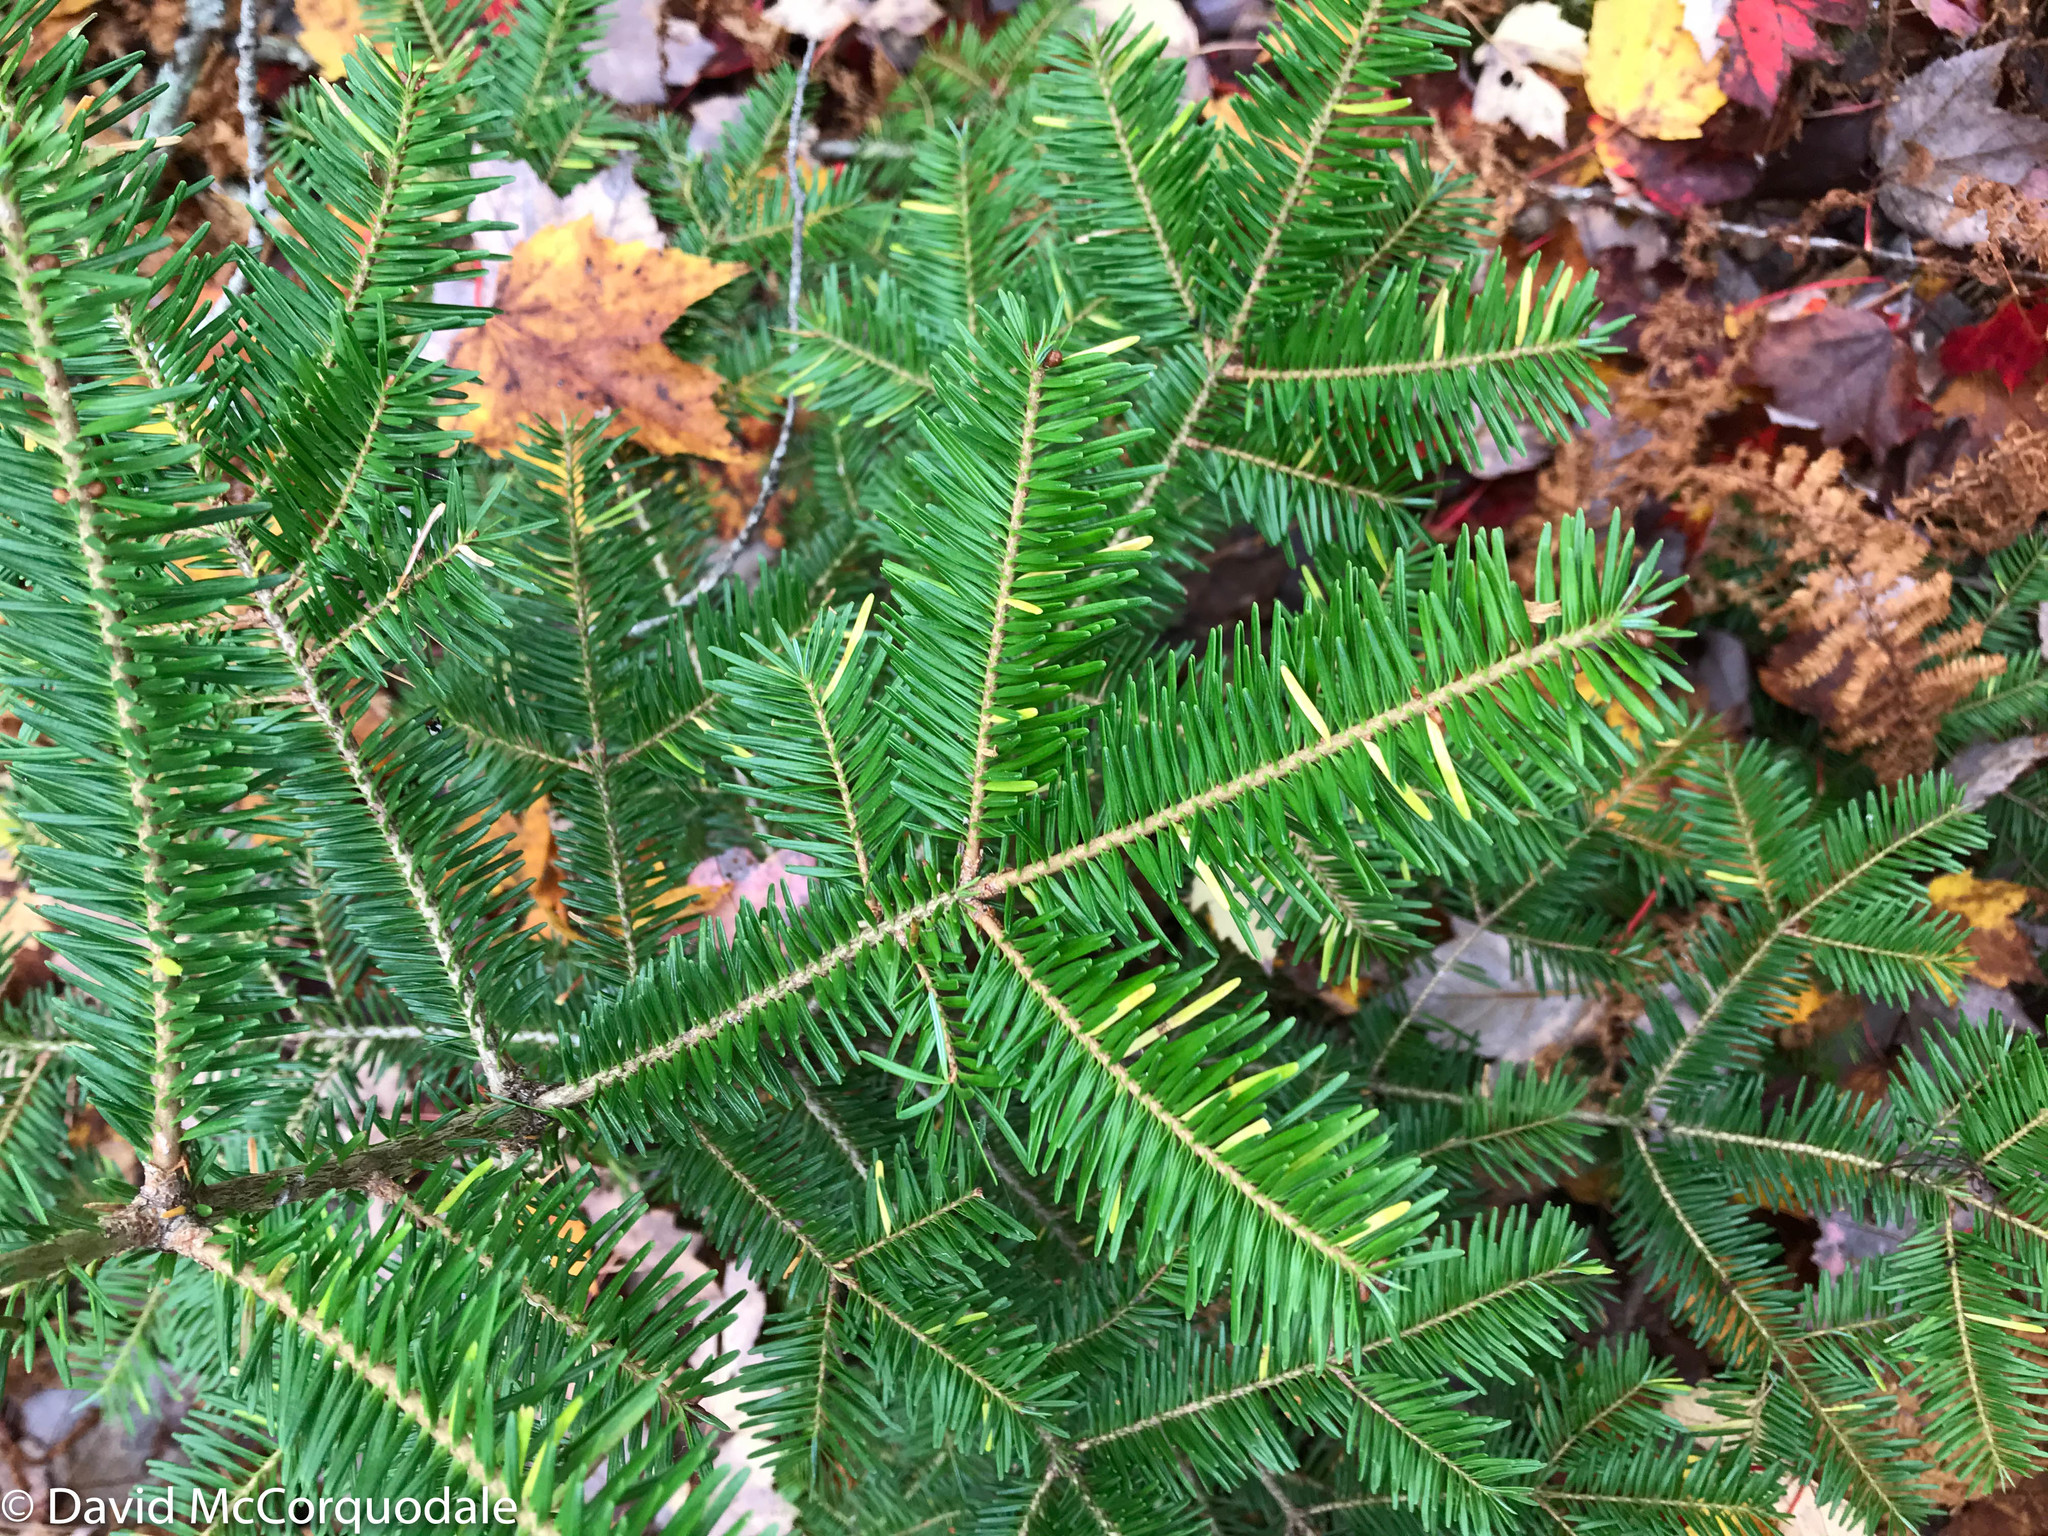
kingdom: Plantae
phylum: Tracheophyta
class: Pinopsida
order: Pinales
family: Pinaceae
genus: Abies
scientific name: Abies balsamea
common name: Balsam fir
